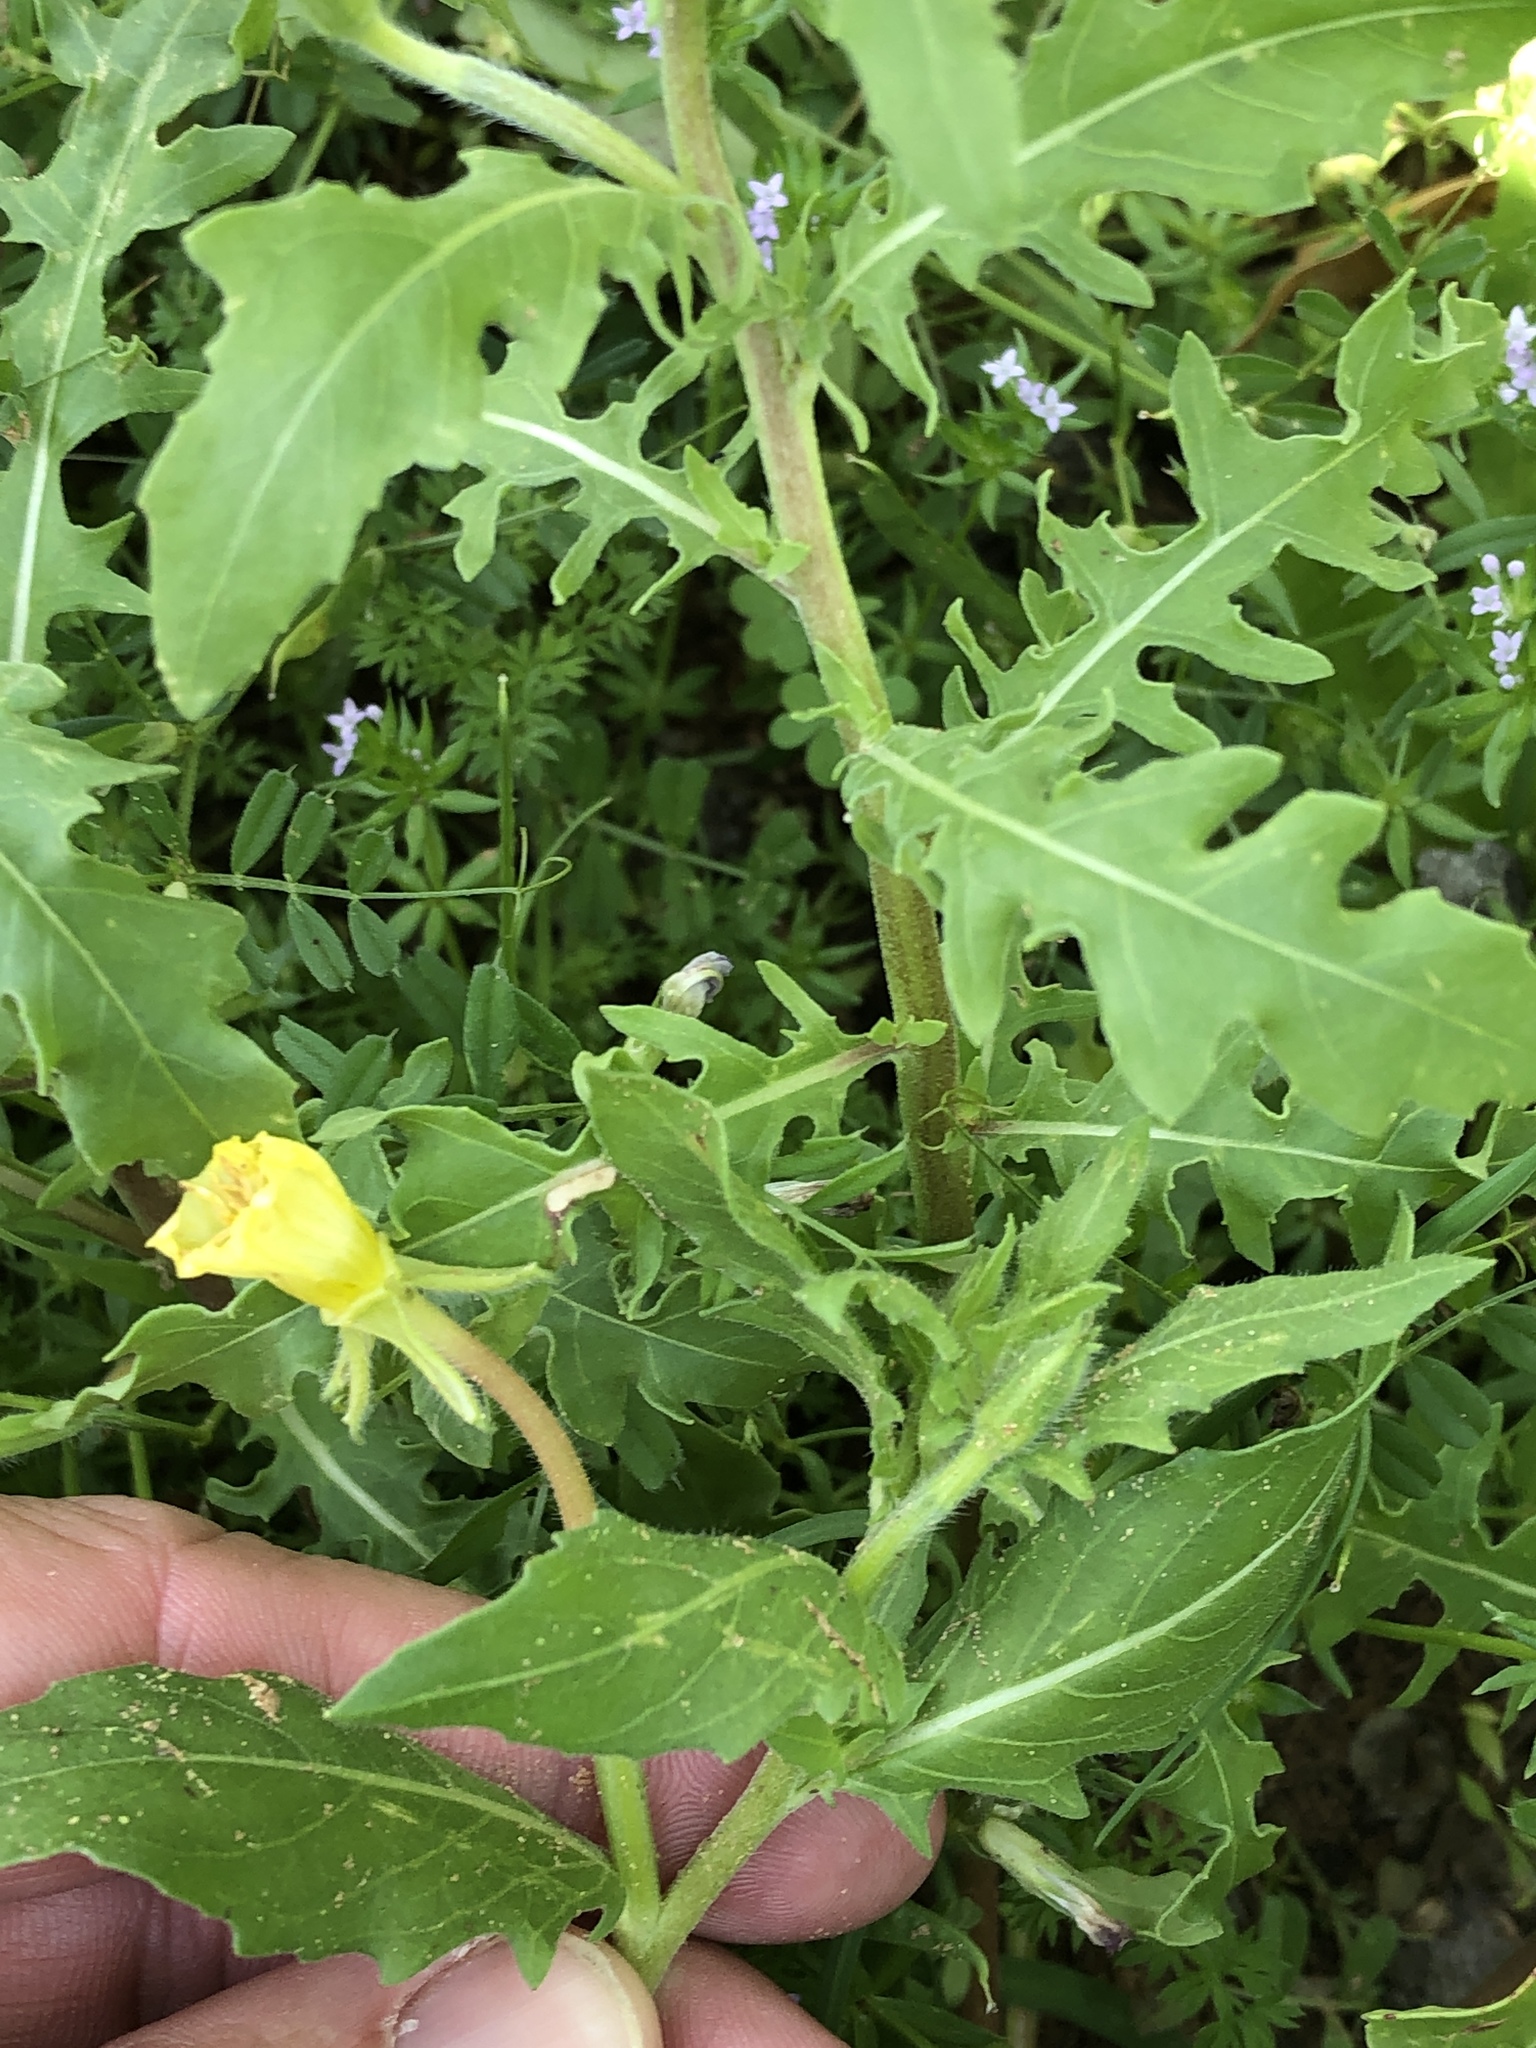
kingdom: Plantae
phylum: Tracheophyta
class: Magnoliopsida
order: Myrtales
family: Onagraceae
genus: Oenothera
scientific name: Oenothera laciniata
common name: Cut-leaved evening-primrose
